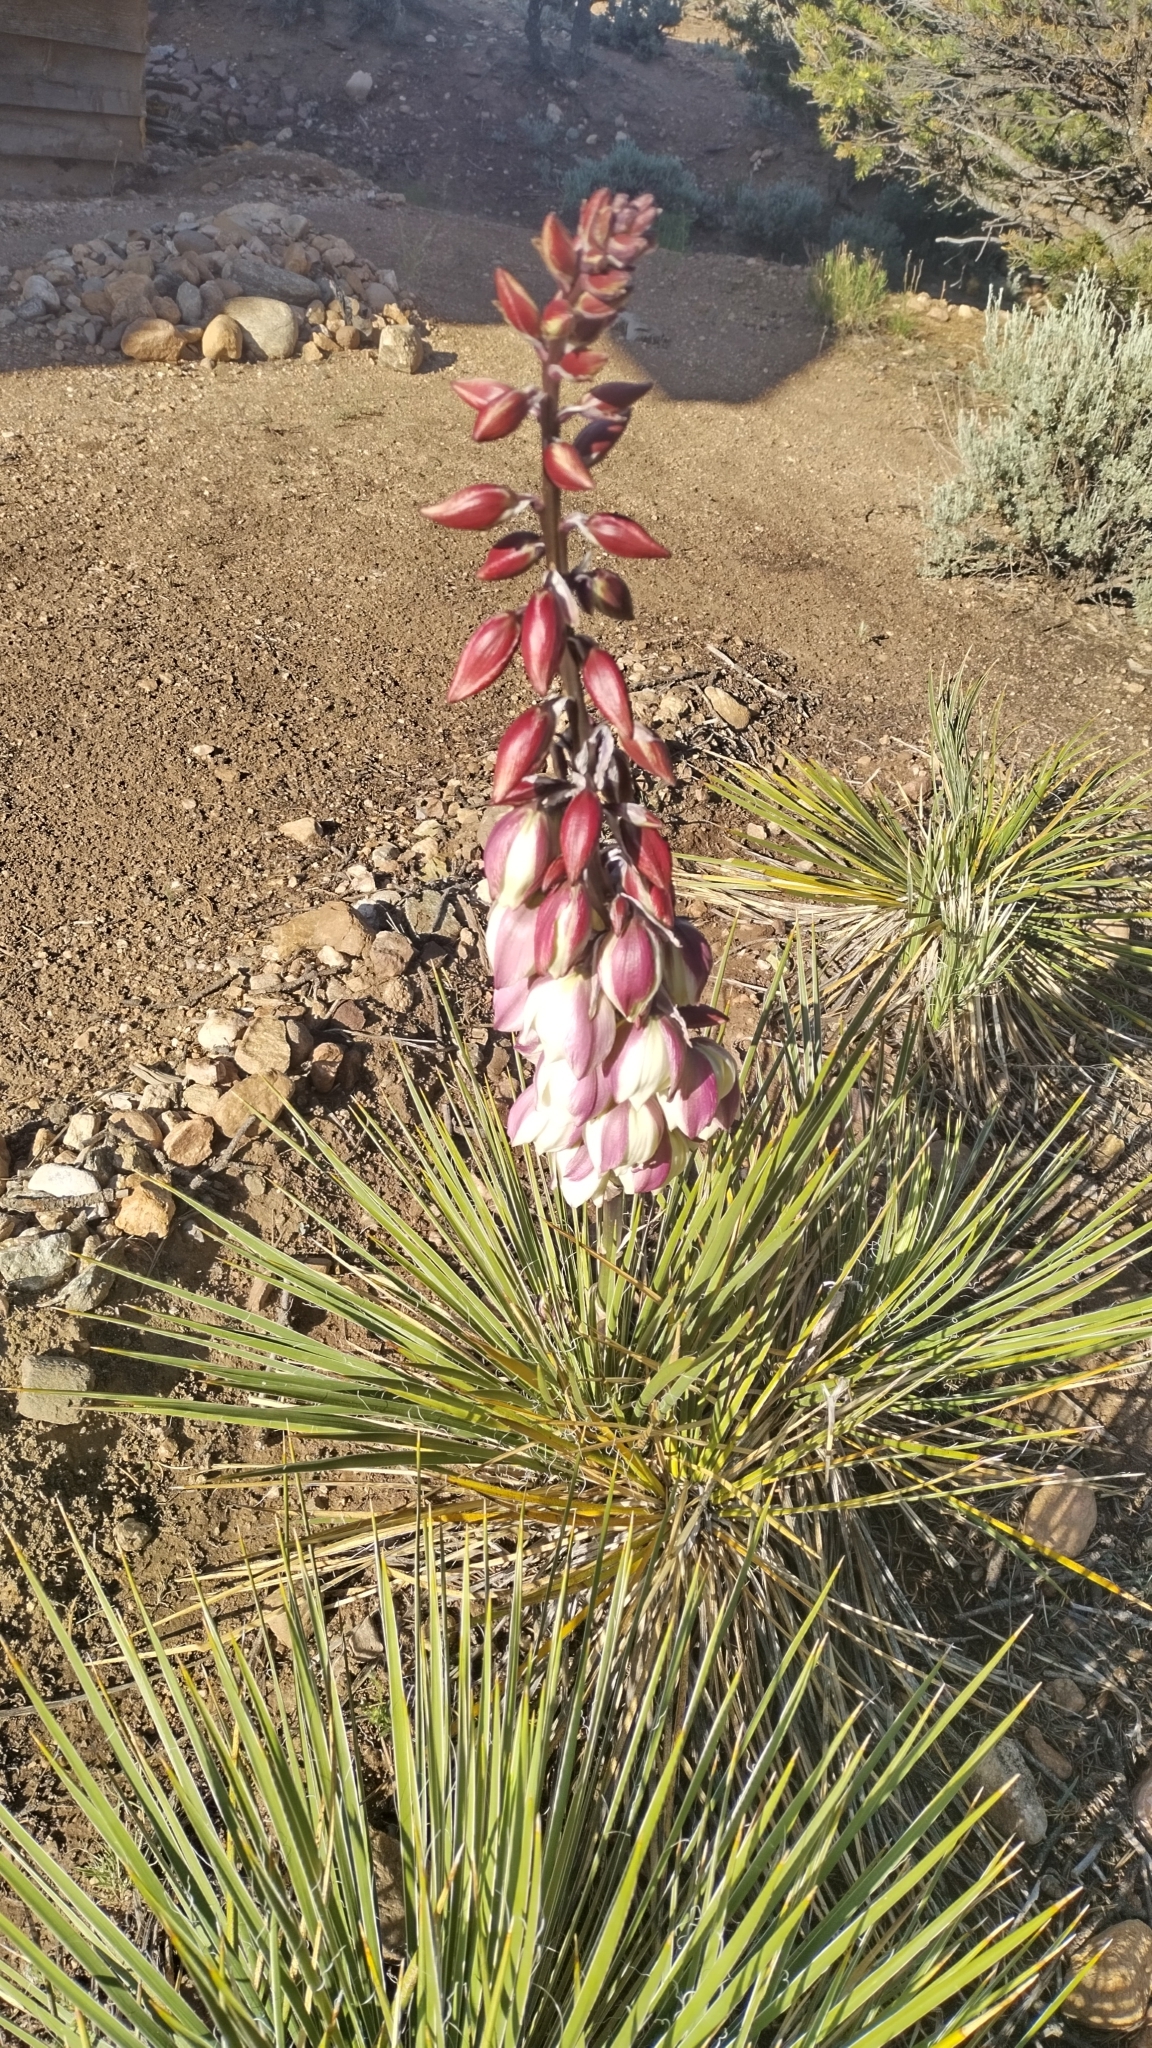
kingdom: Plantae
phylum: Tracheophyta
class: Liliopsida
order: Asparagales
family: Asparagaceae
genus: Yucca
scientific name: Yucca baileyi
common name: Alpine yucca
